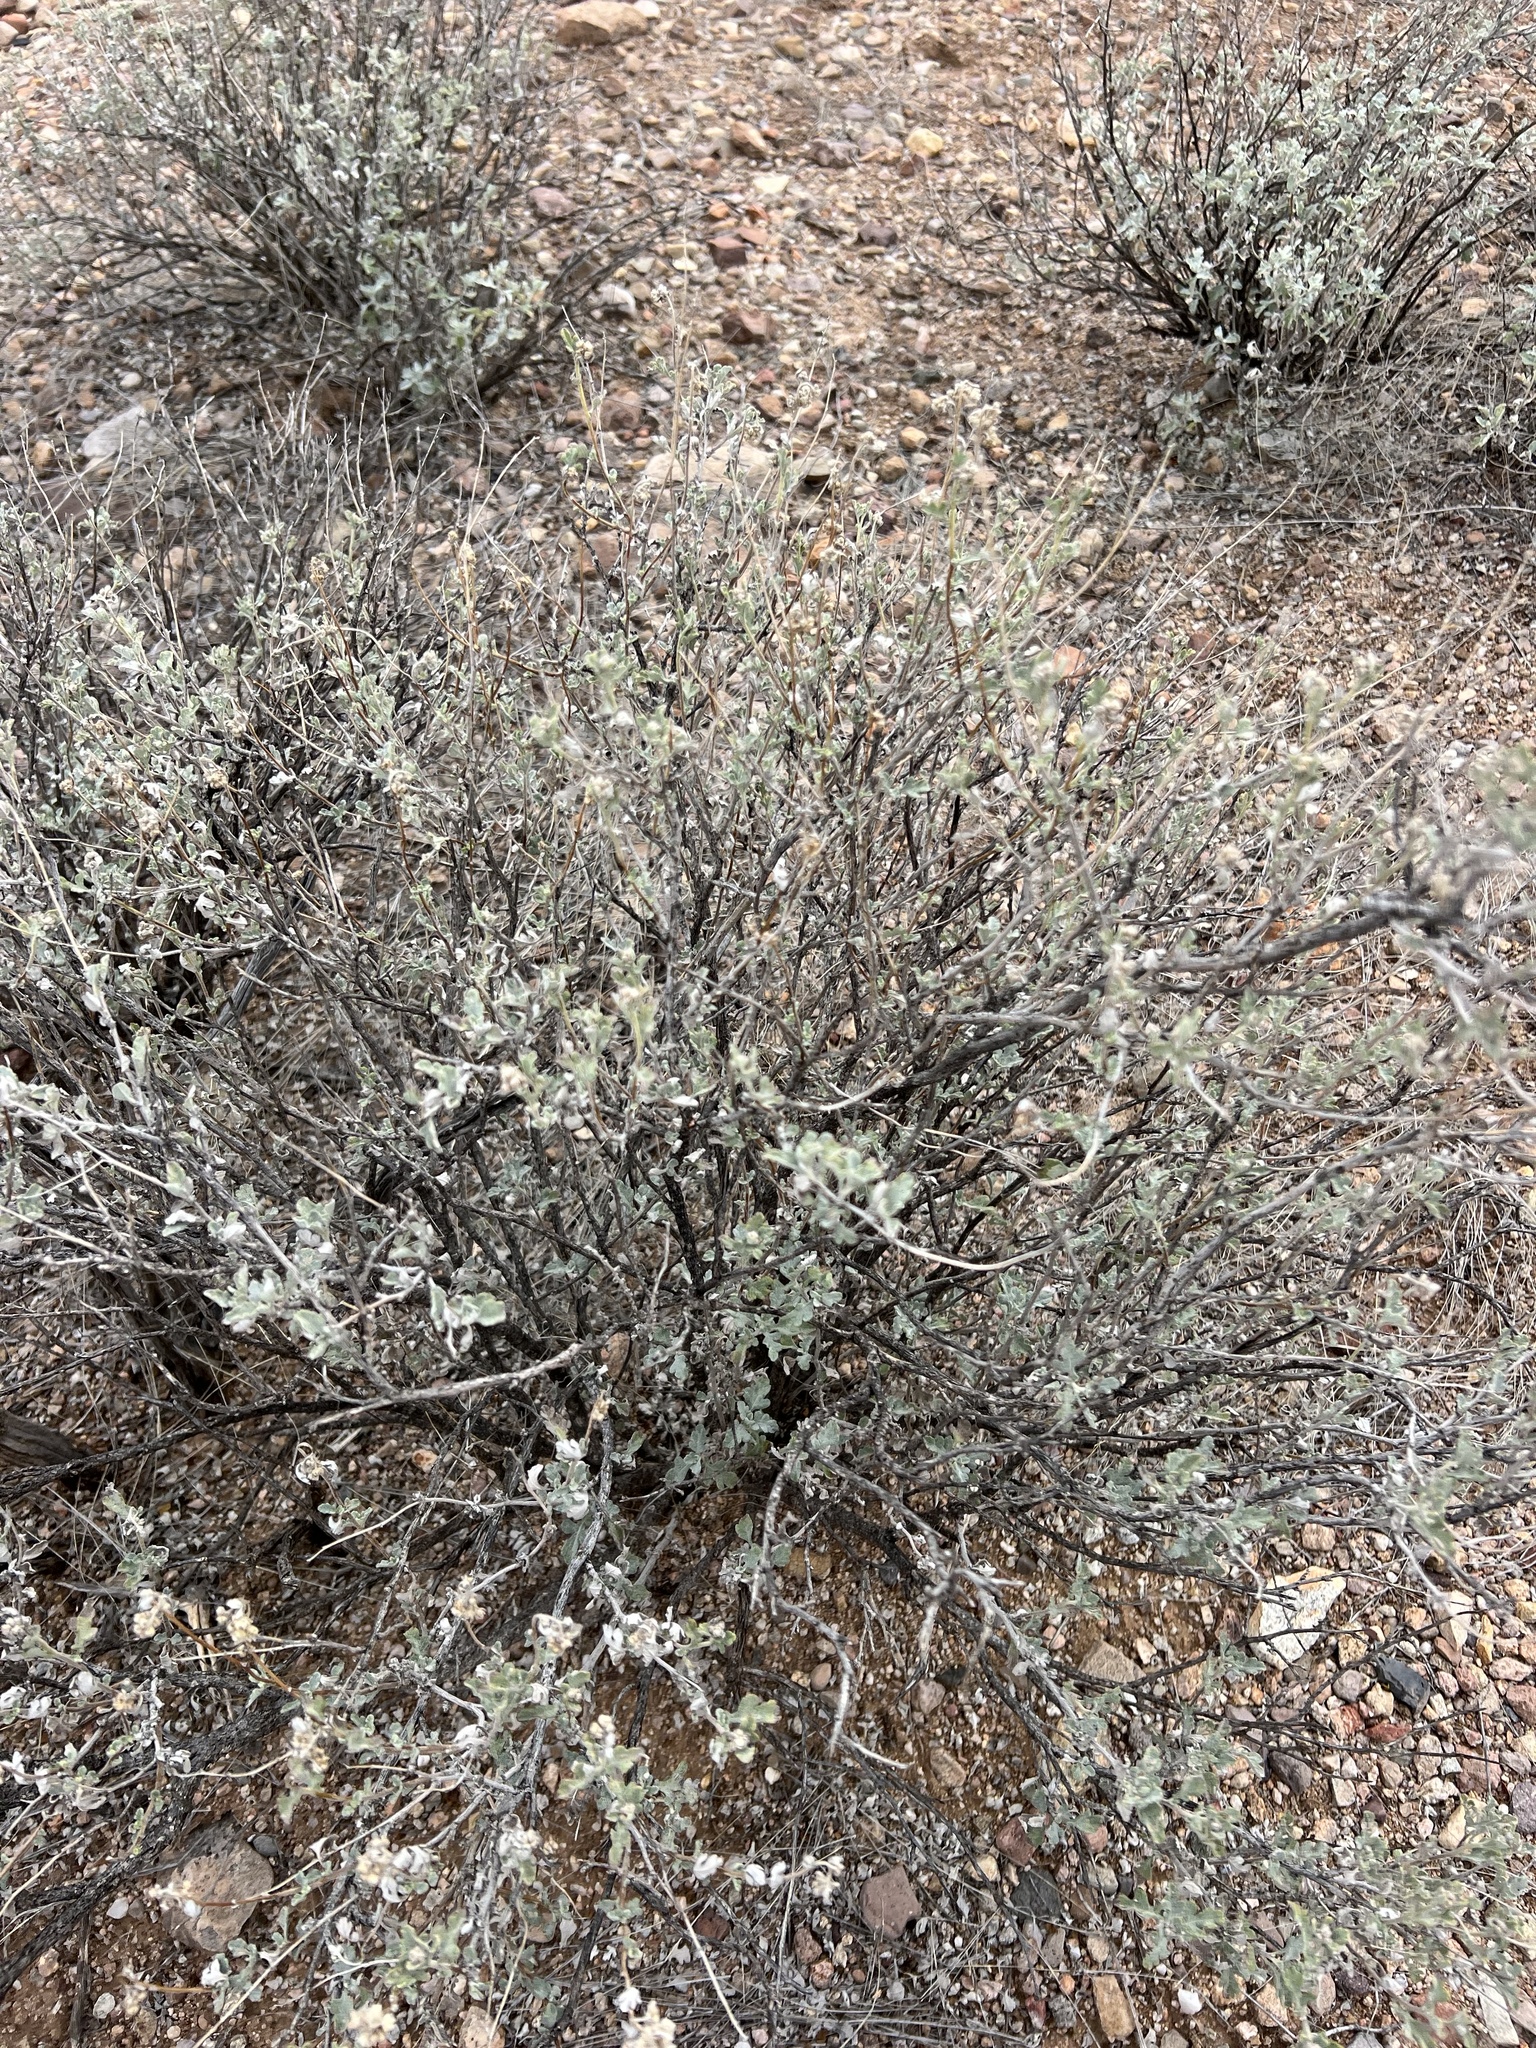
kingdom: Plantae
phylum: Tracheophyta
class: Magnoliopsida
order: Asterales
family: Asteraceae
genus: Parthenium
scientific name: Parthenium incanum
